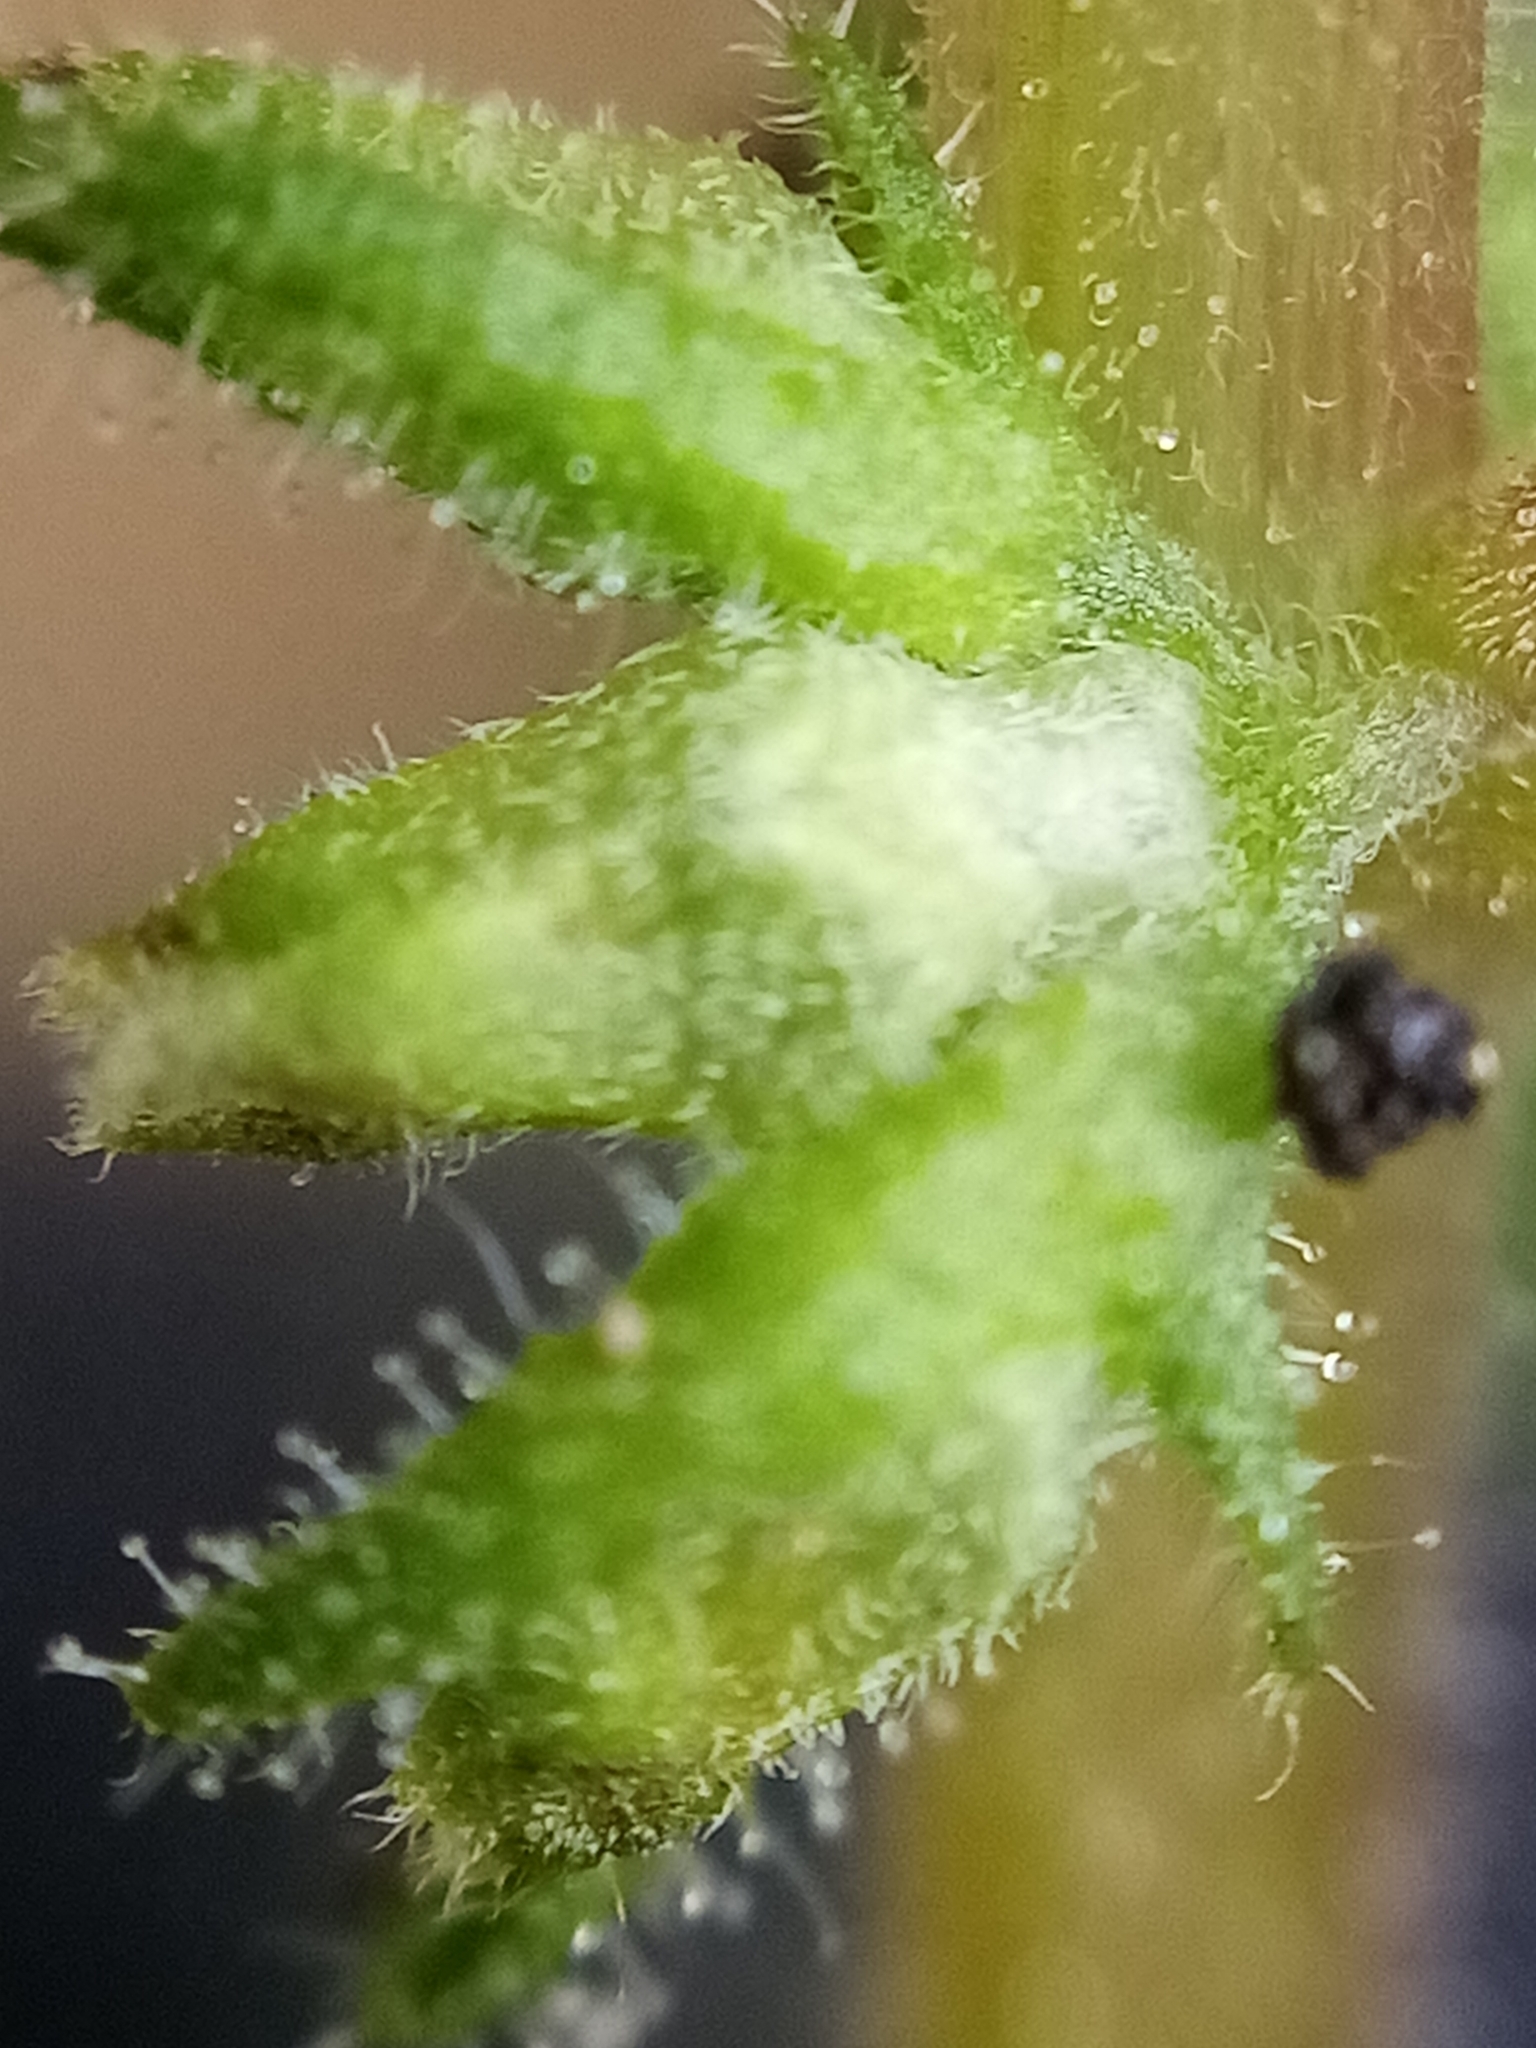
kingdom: Plantae
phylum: Tracheophyta
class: Magnoliopsida
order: Rosales
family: Urticaceae
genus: Parietaria
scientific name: Parietaria debilis
